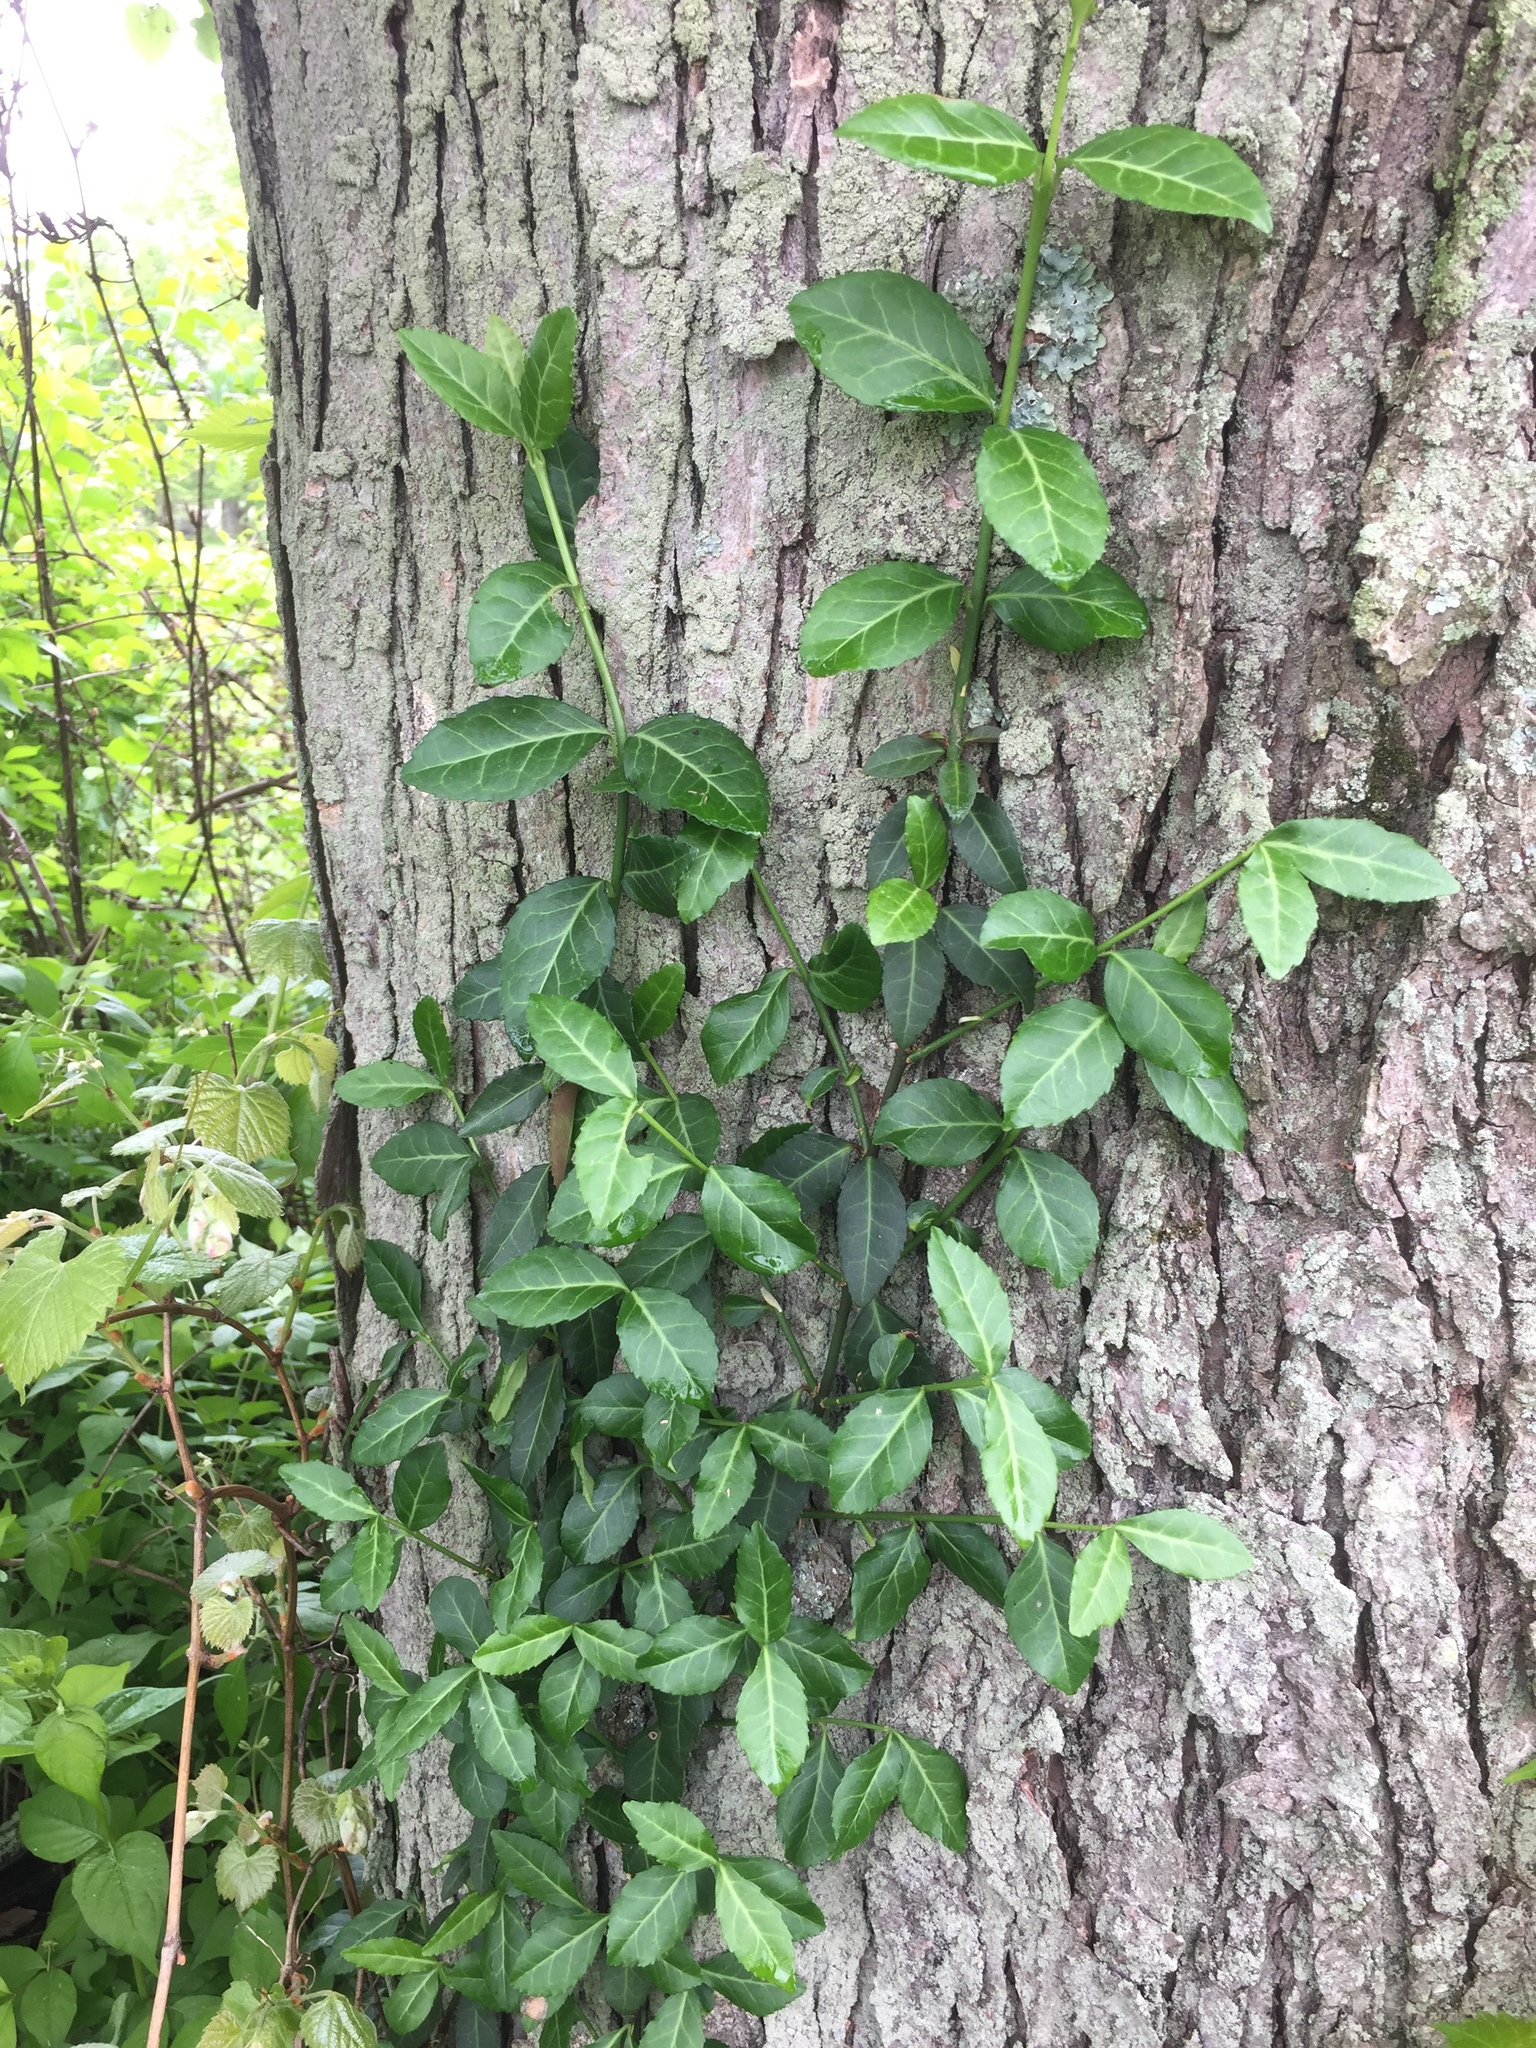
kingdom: Plantae
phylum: Tracheophyta
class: Magnoliopsida
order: Celastrales
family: Celastraceae
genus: Euonymus
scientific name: Euonymus fortunei
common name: Climbing euonymus
